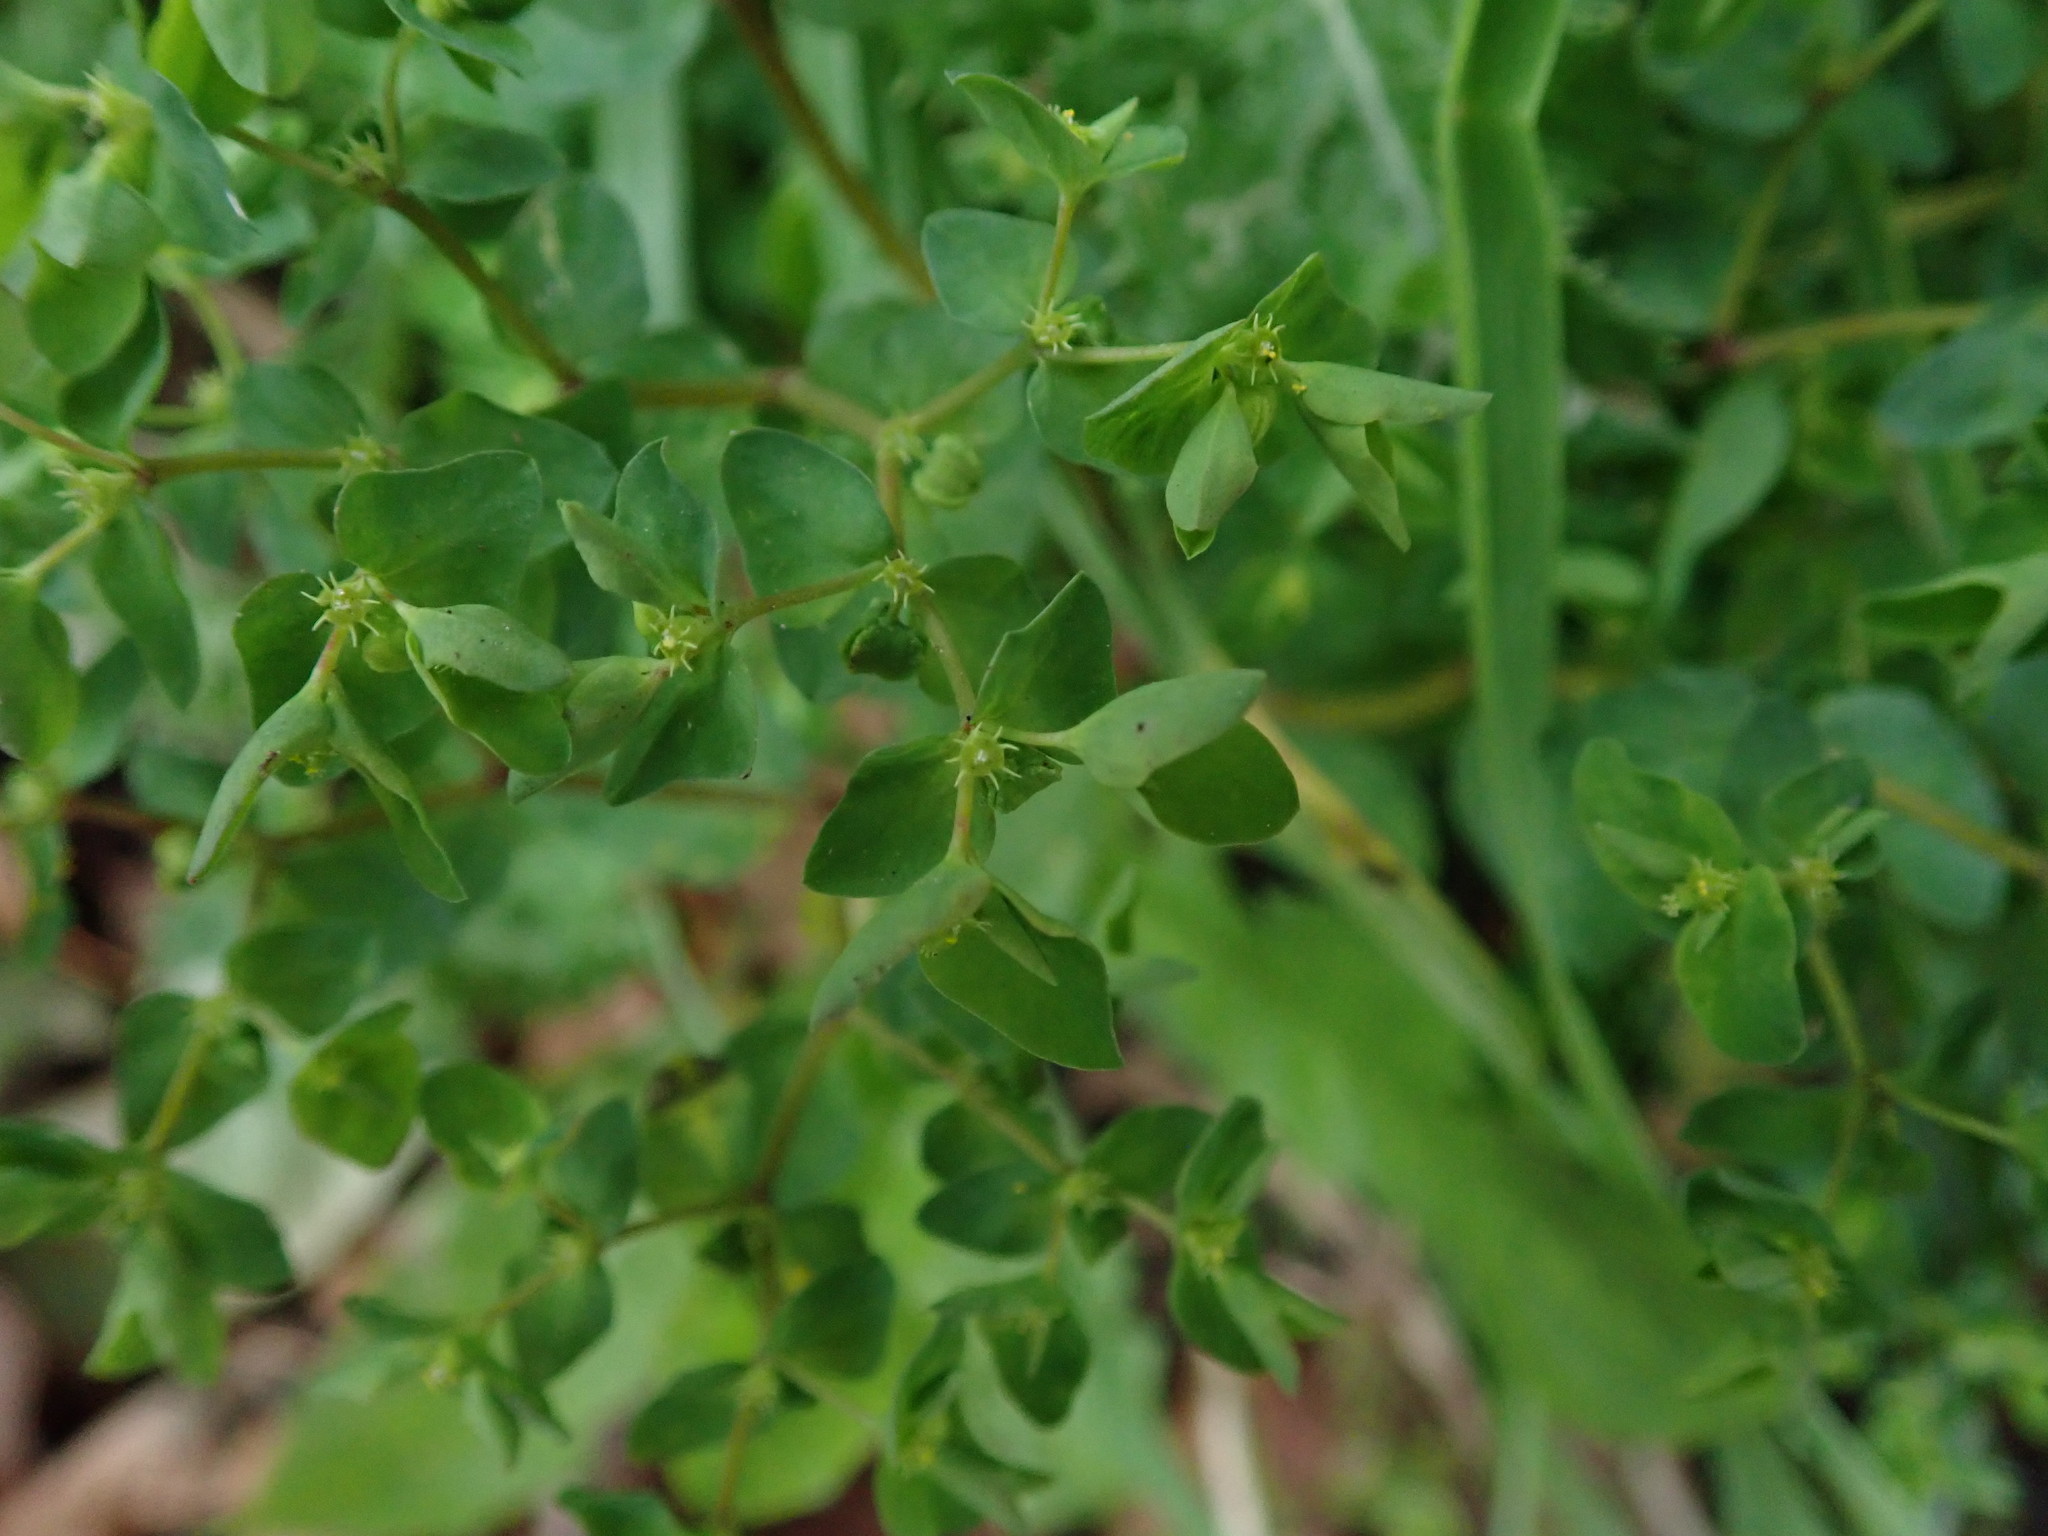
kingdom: Plantae
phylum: Tracheophyta
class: Magnoliopsida
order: Malpighiales
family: Euphorbiaceae
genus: Euphorbia
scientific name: Euphorbia peplus
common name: Petty spurge
